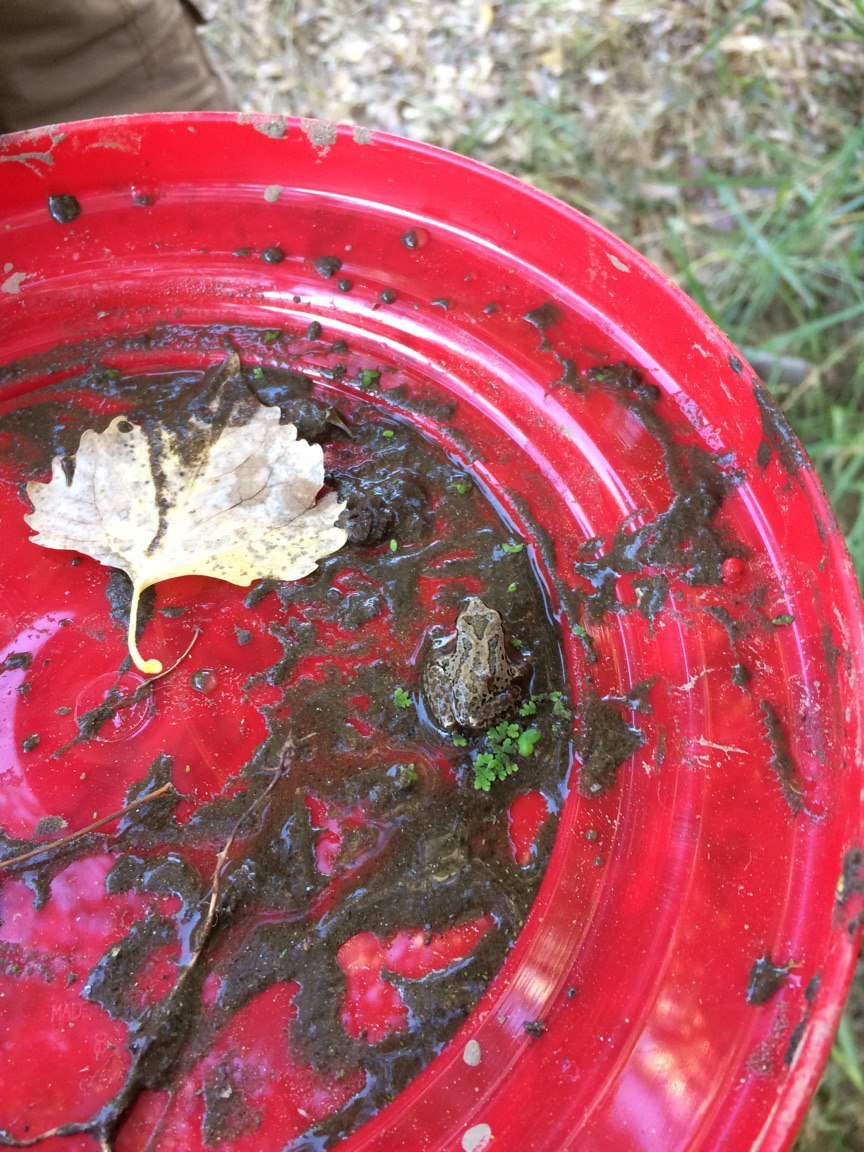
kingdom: Animalia
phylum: Chordata
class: Amphibia
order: Anura
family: Hylidae
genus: Pseudacris
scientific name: Pseudacris regilla
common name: Pacific chorus frog
